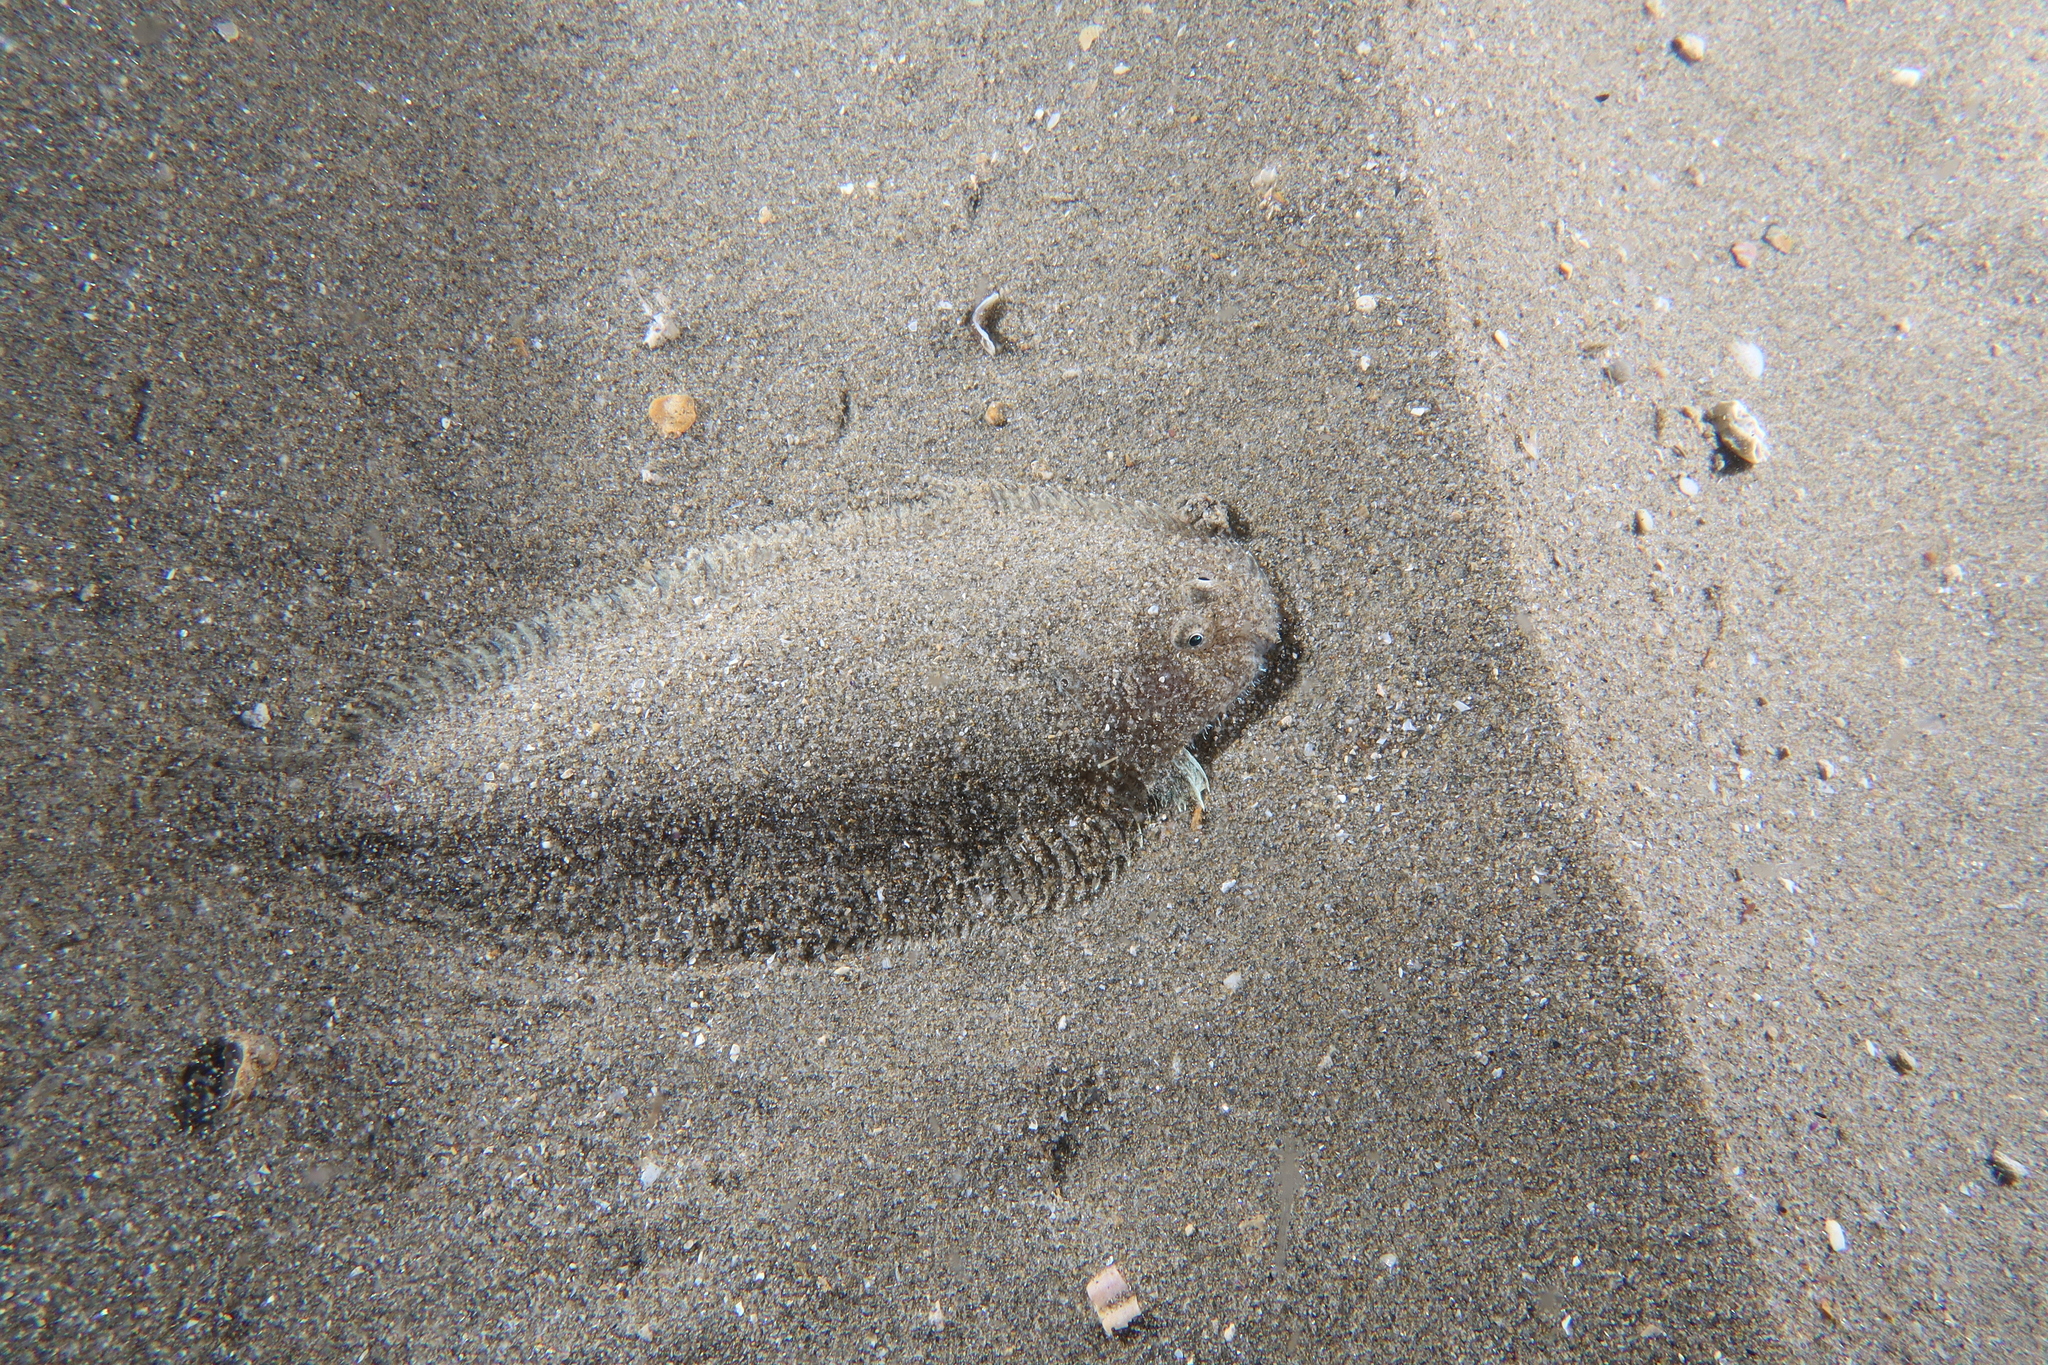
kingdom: Animalia
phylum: Chordata
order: Pleuronectiformes
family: Soleidae
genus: Buglossidium
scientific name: Buglossidium luteum
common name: Solenette
